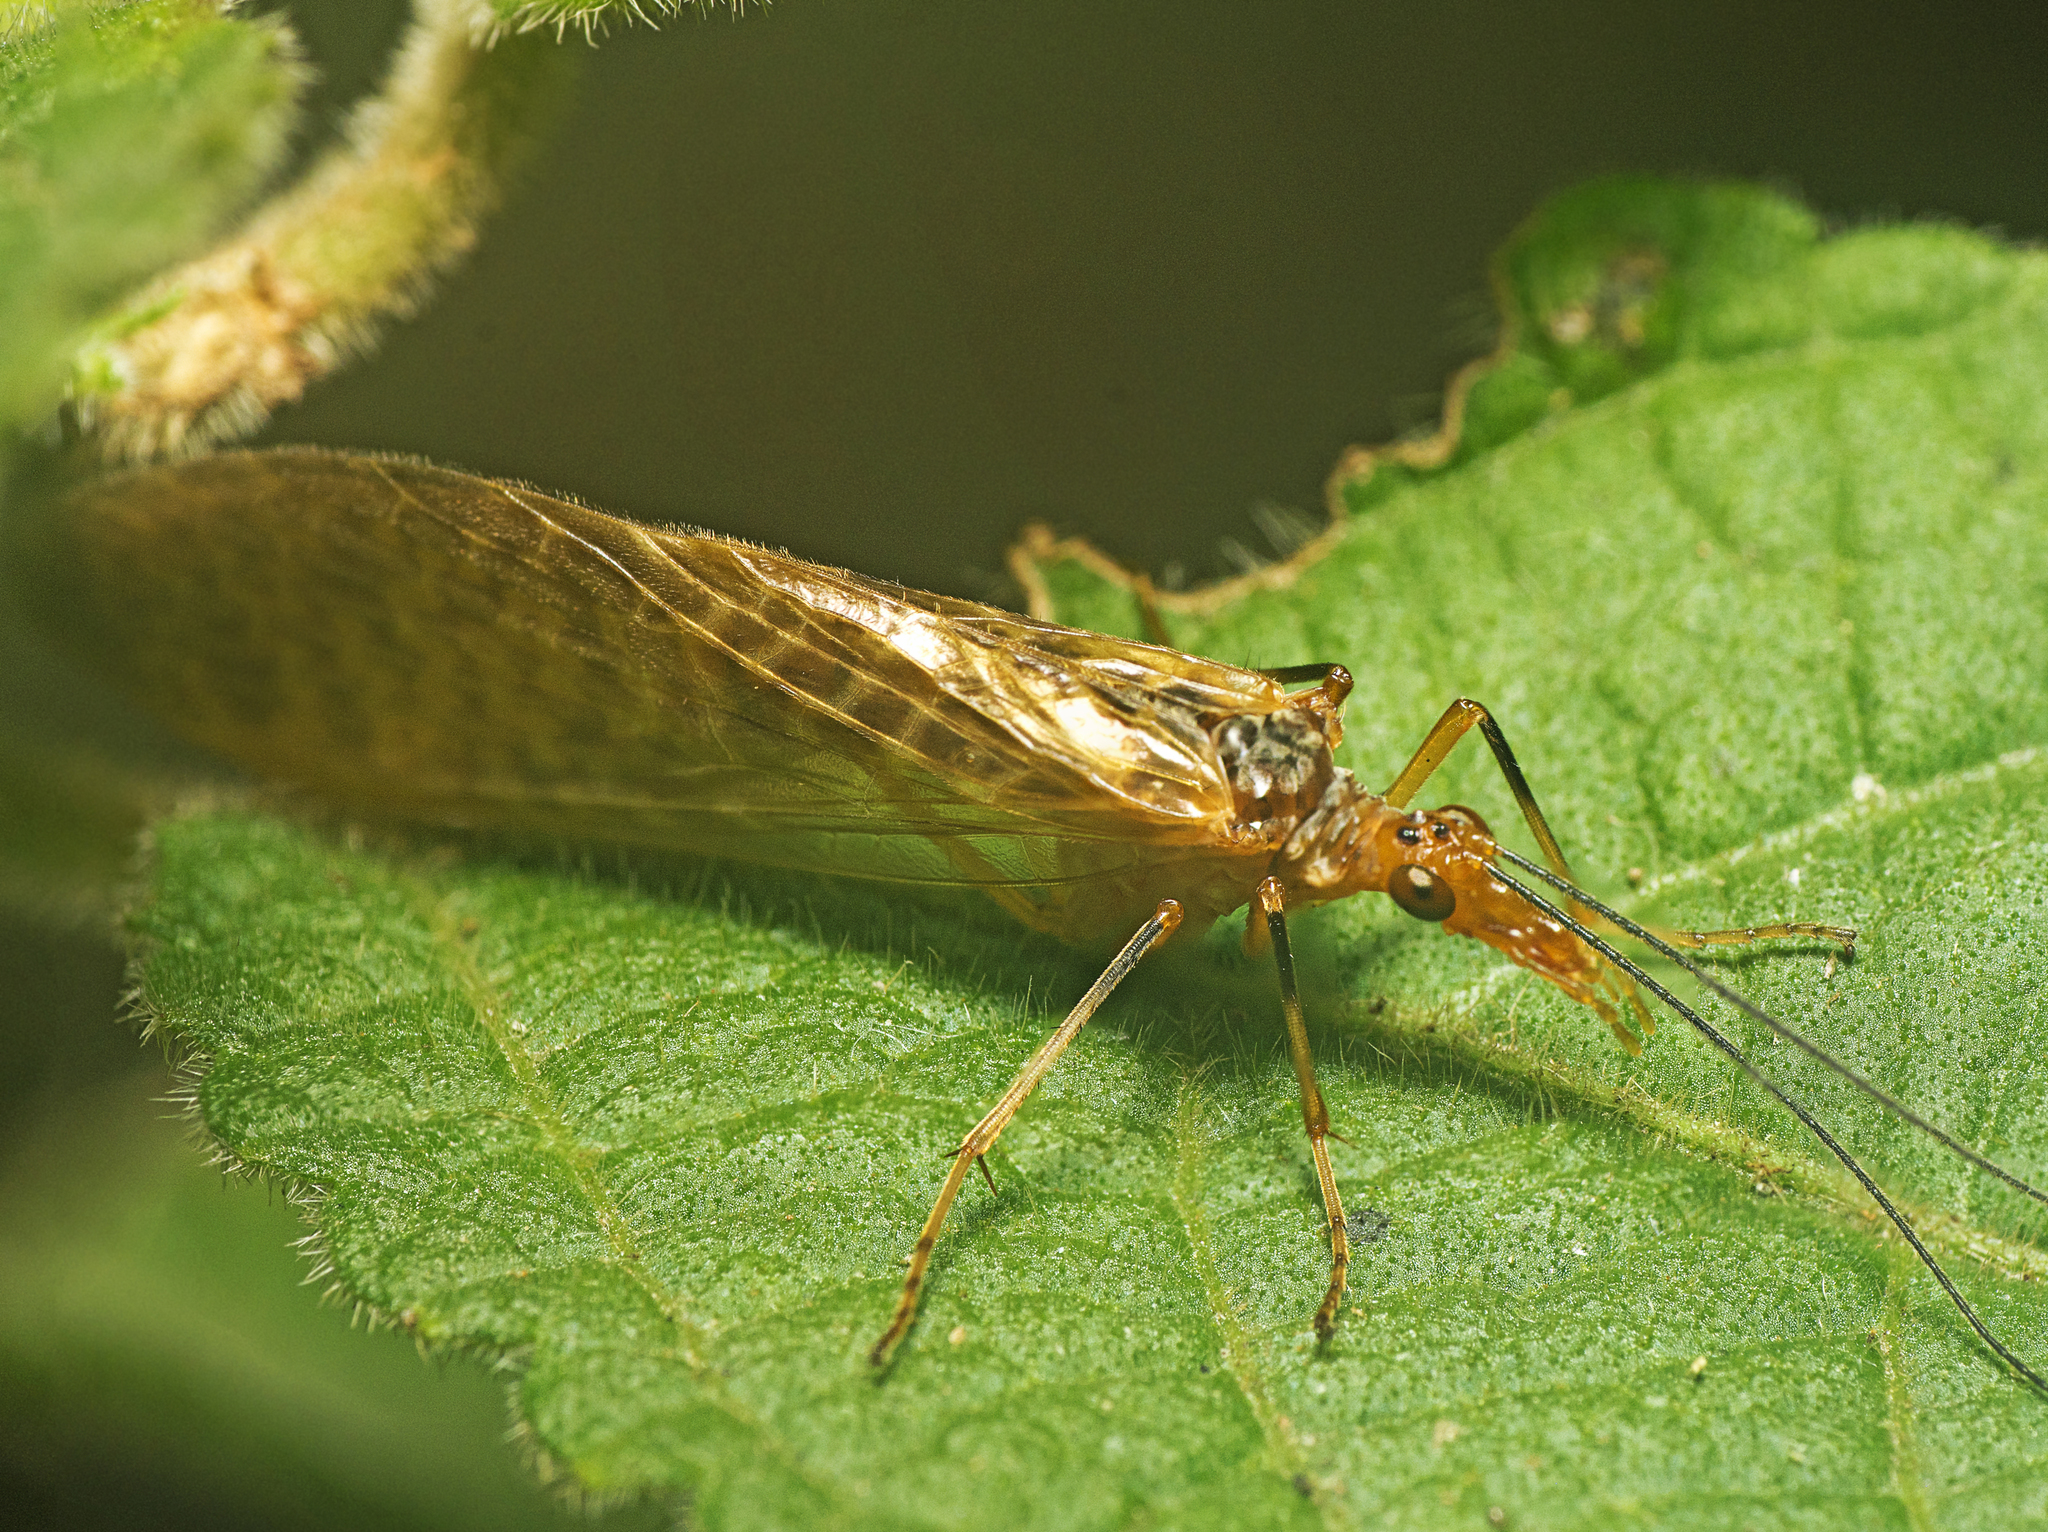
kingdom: Animalia
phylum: Arthropoda
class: Insecta
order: Mecoptera
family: Choristidae
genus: Taeniochorista
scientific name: Taeniochorista pallida
